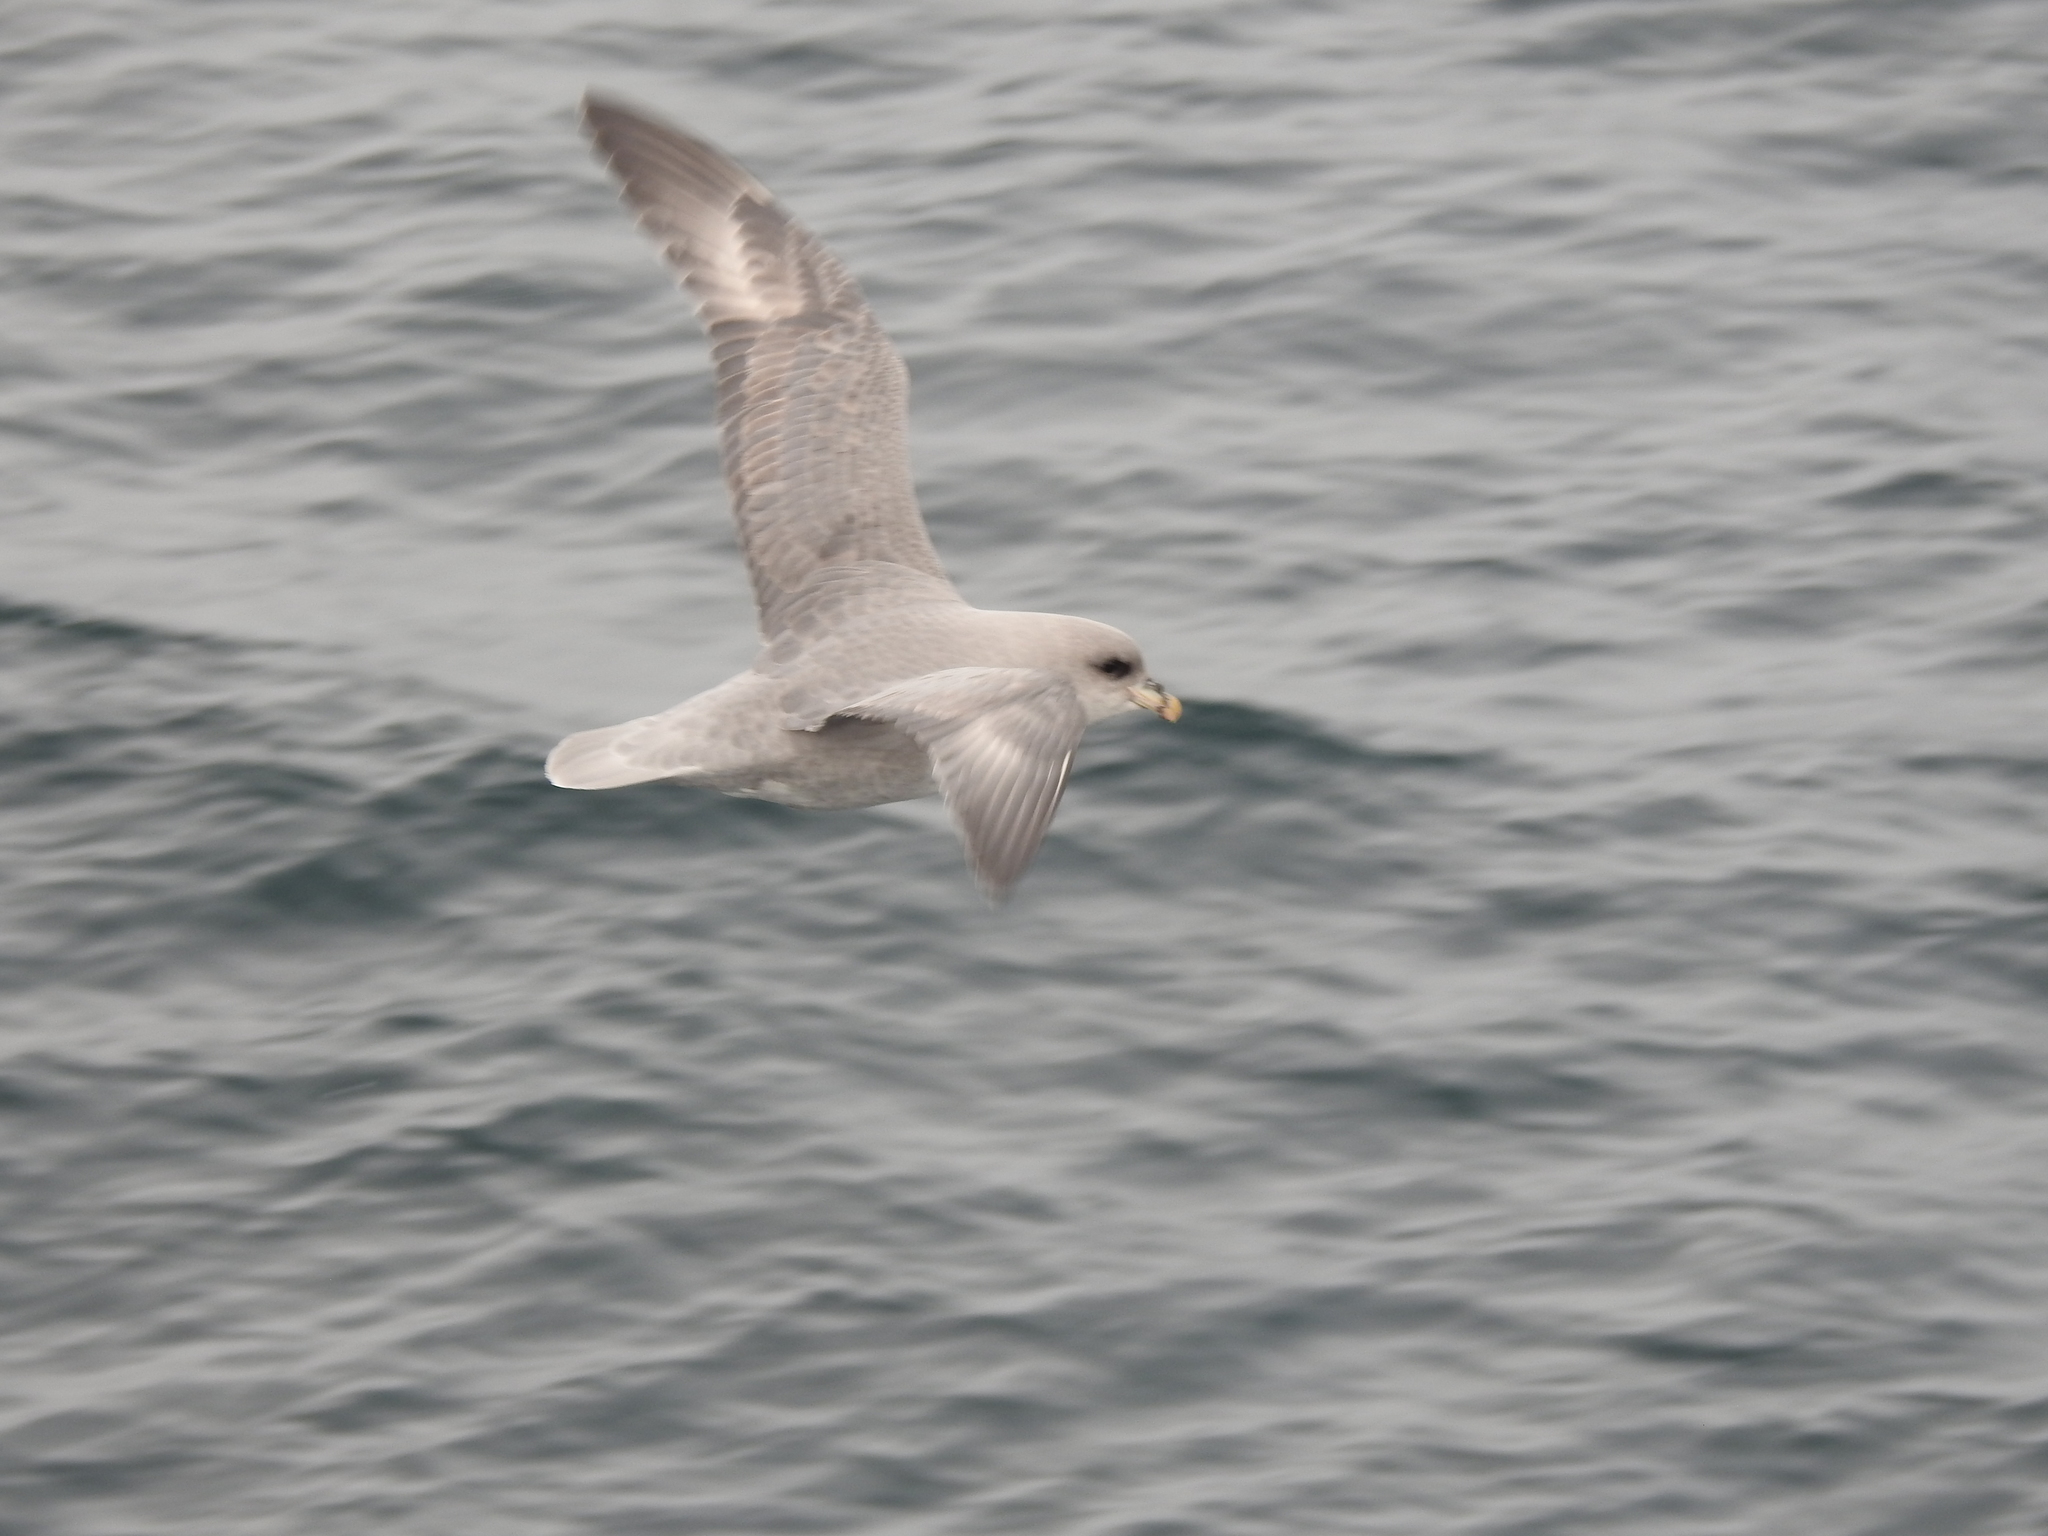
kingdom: Animalia
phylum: Chordata
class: Aves
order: Procellariiformes
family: Procellariidae
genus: Fulmarus
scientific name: Fulmarus glacialis
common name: Northern fulmar
